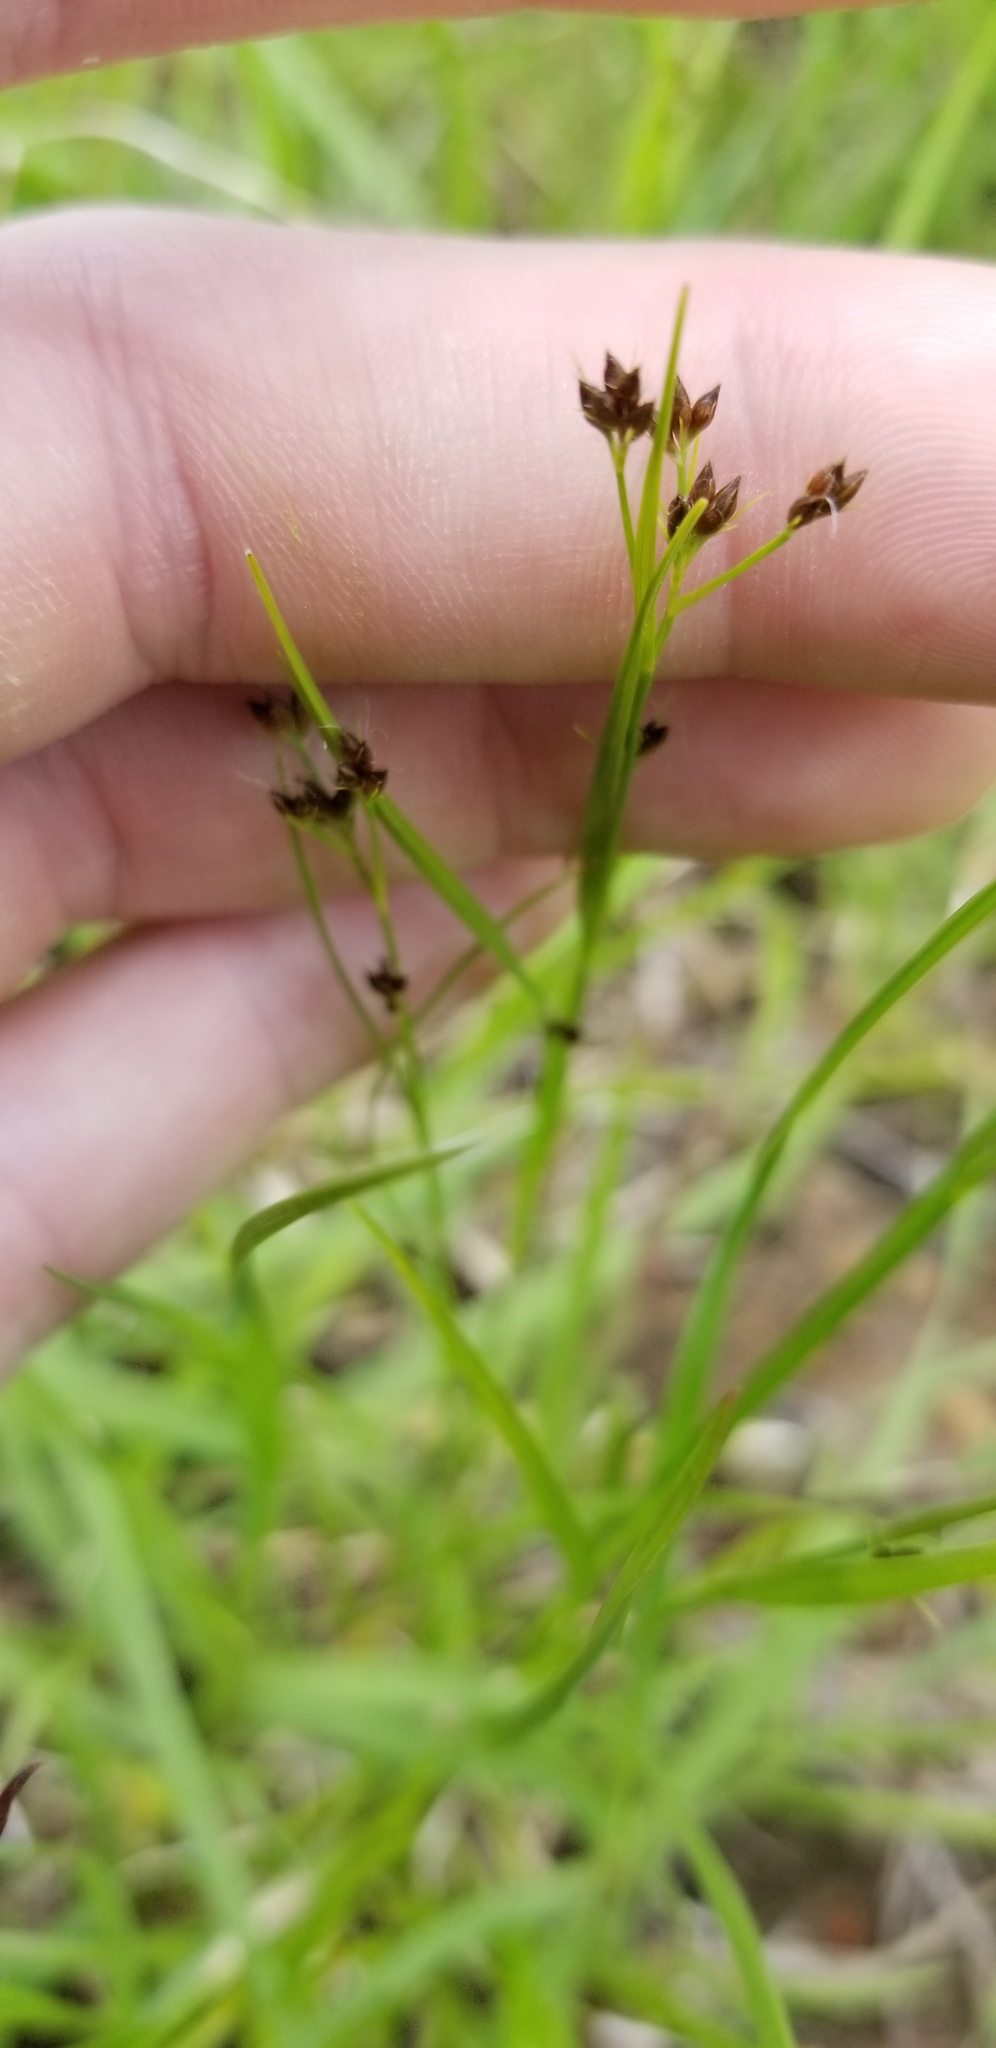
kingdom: Plantae
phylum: Tracheophyta
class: Liliopsida
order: Poales
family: Cyperaceae
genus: Rhynchospora
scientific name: Rhynchospora globularis
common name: Globe beaksedge
